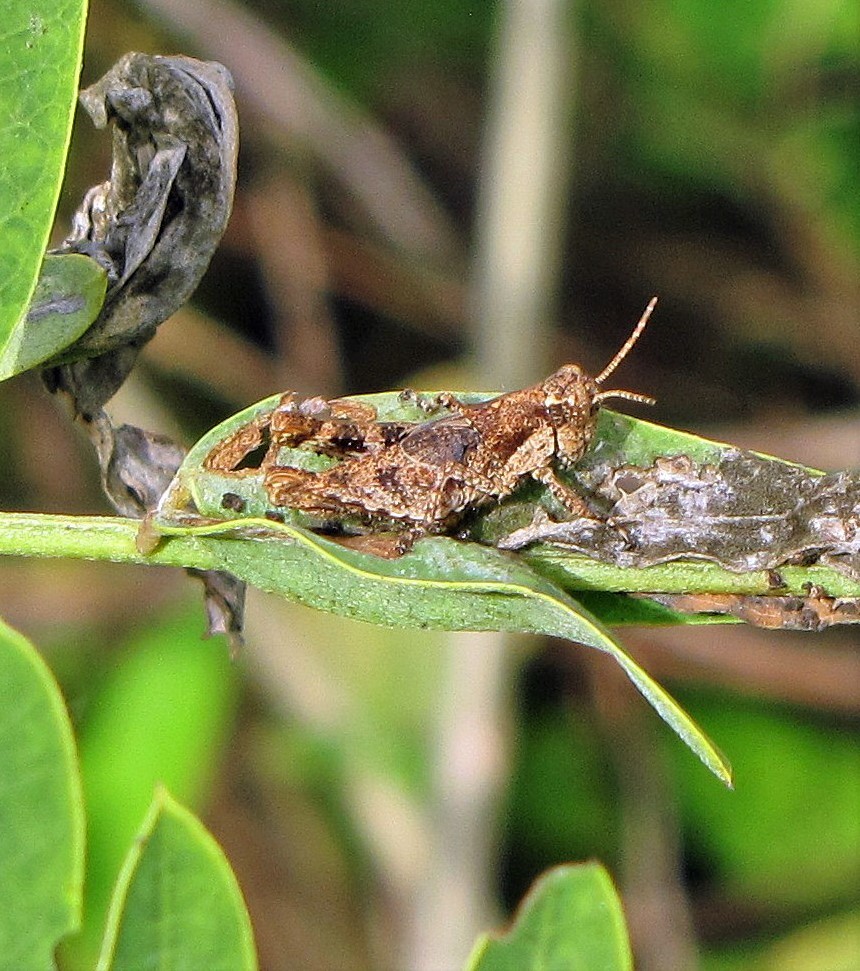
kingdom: Animalia
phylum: Arthropoda
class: Insecta
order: Orthoptera
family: Acrididae
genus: Ronderosia
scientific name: Ronderosia bergii
